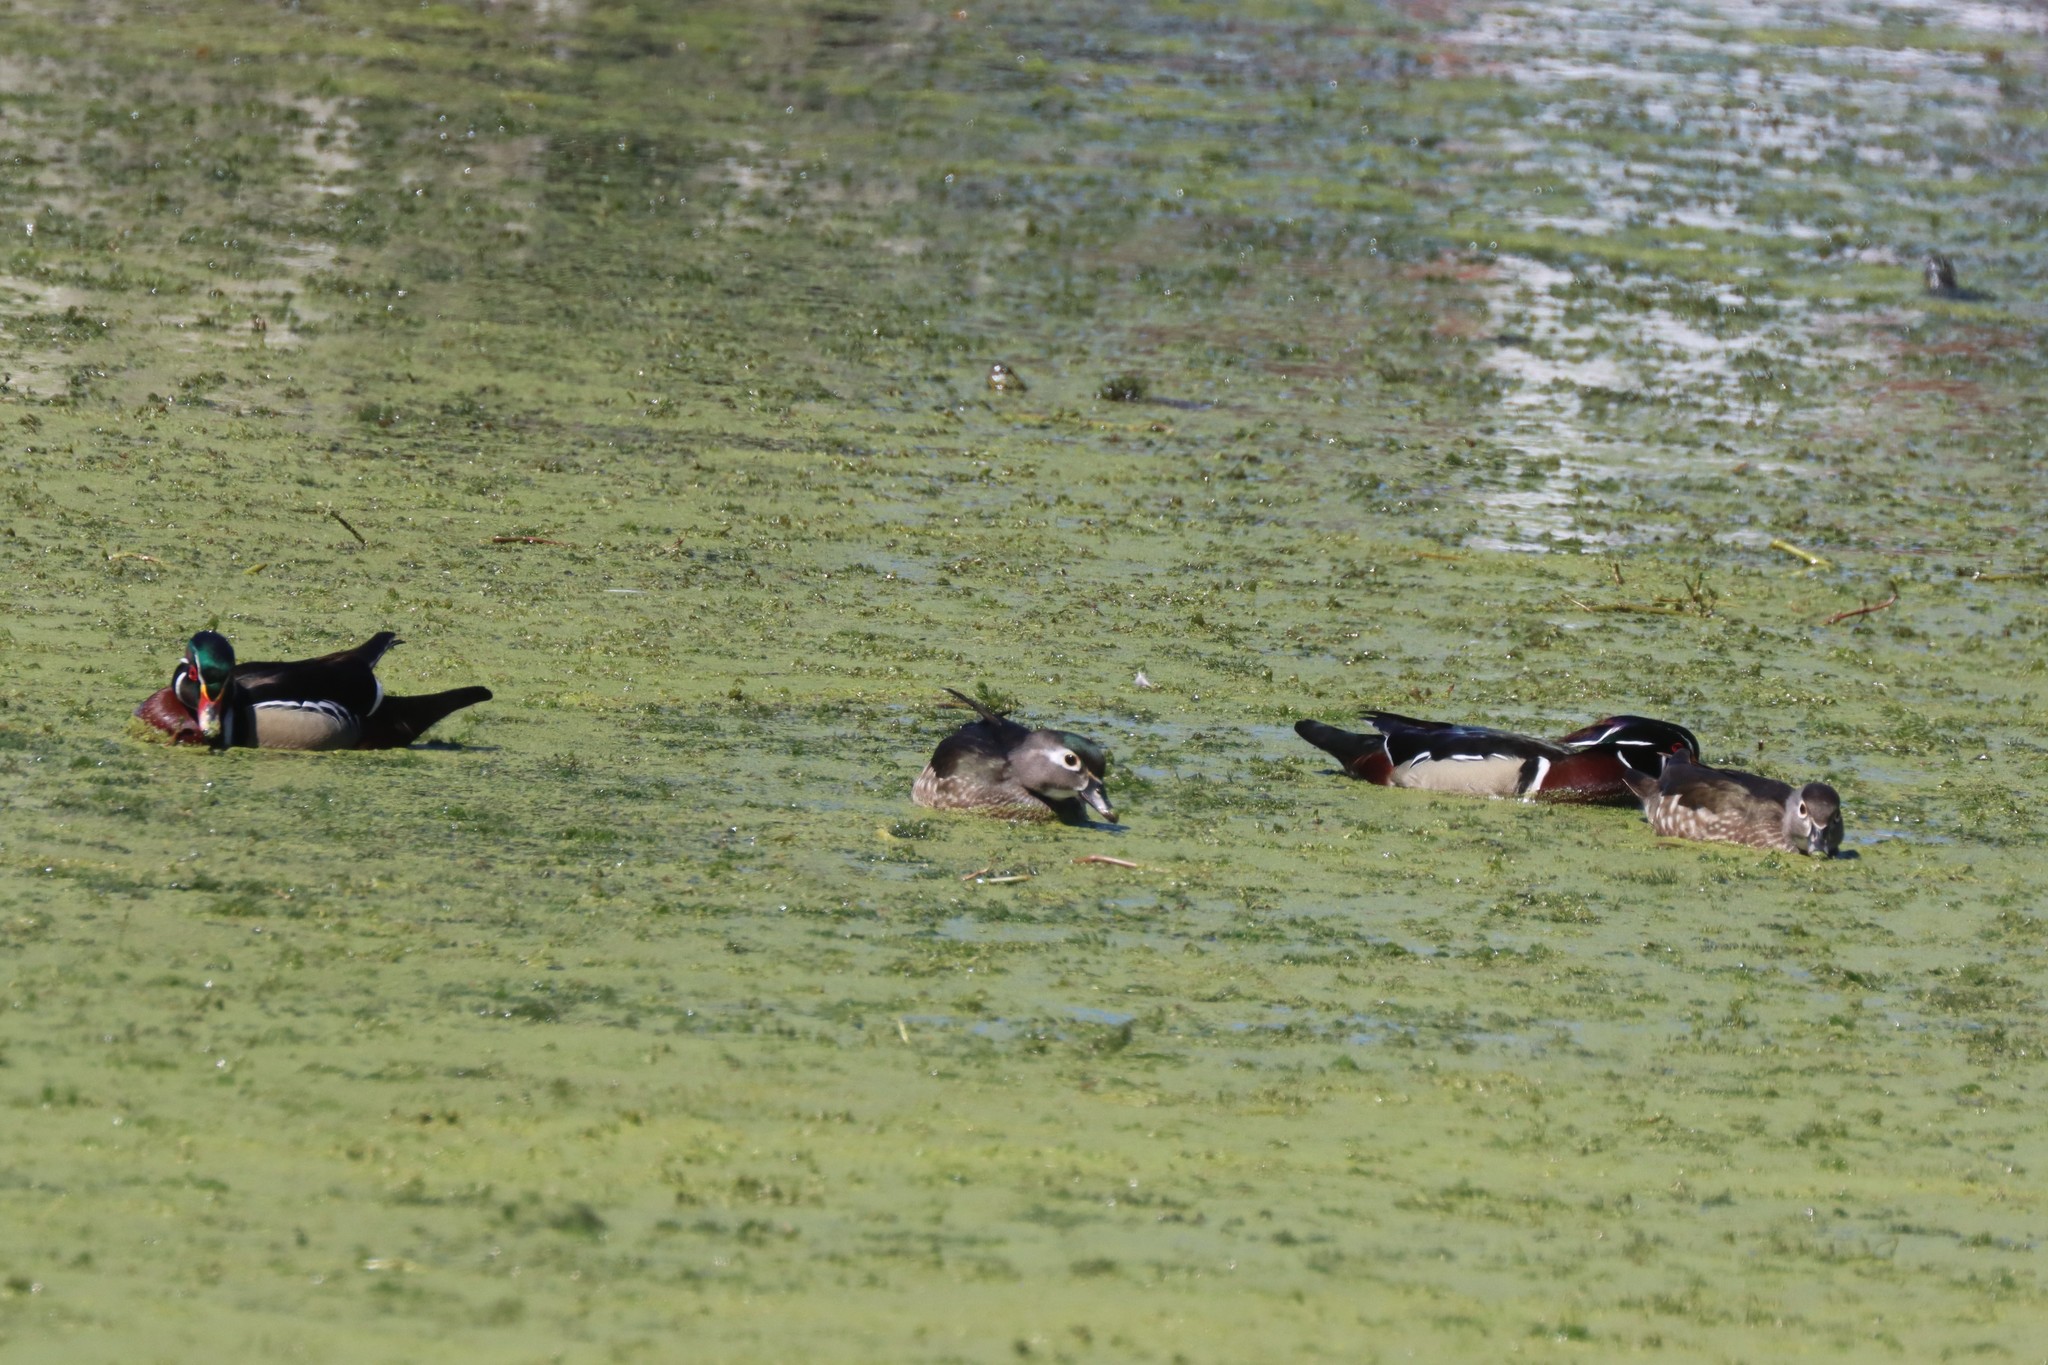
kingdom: Animalia
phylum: Chordata
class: Aves
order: Anseriformes
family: Anatidae
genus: Aix
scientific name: Aix sponsa
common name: Wood duck
